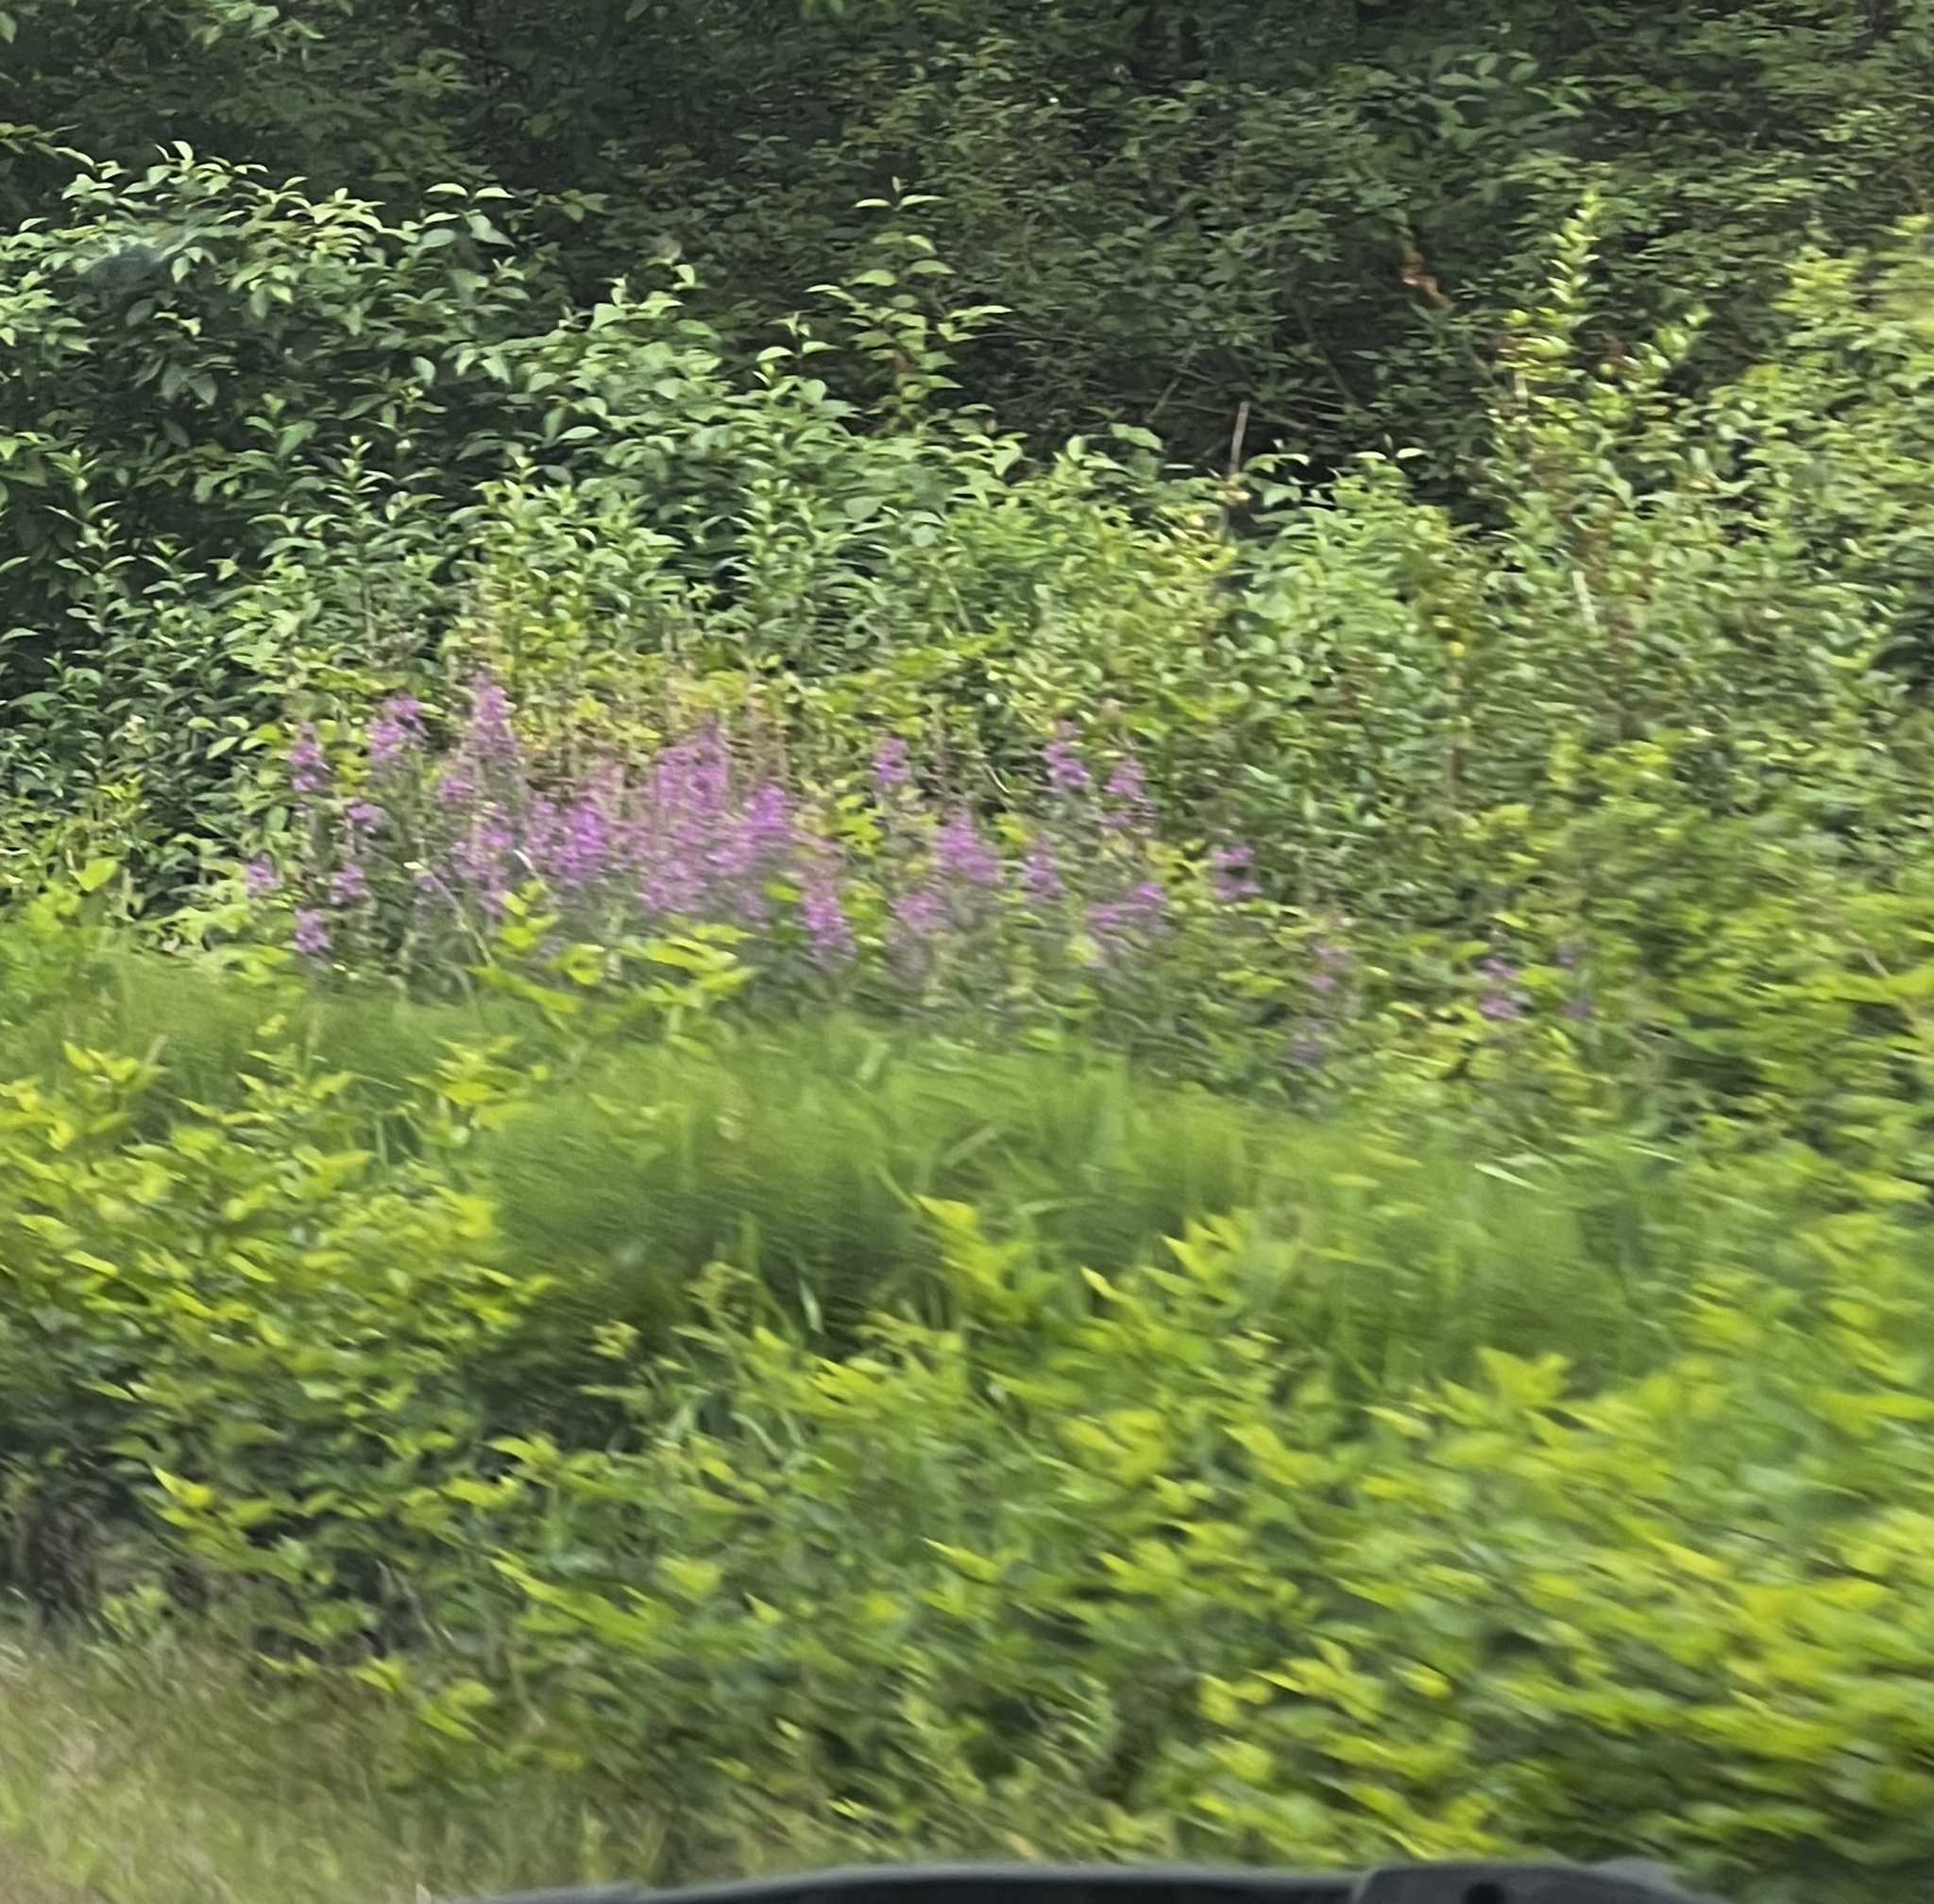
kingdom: Plantae
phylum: Tracheophyta
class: Magnoliopsida
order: Myrtales
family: Onagraceae
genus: Chamaenerion
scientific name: Chamaenerion angustifolium
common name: Fireweed
